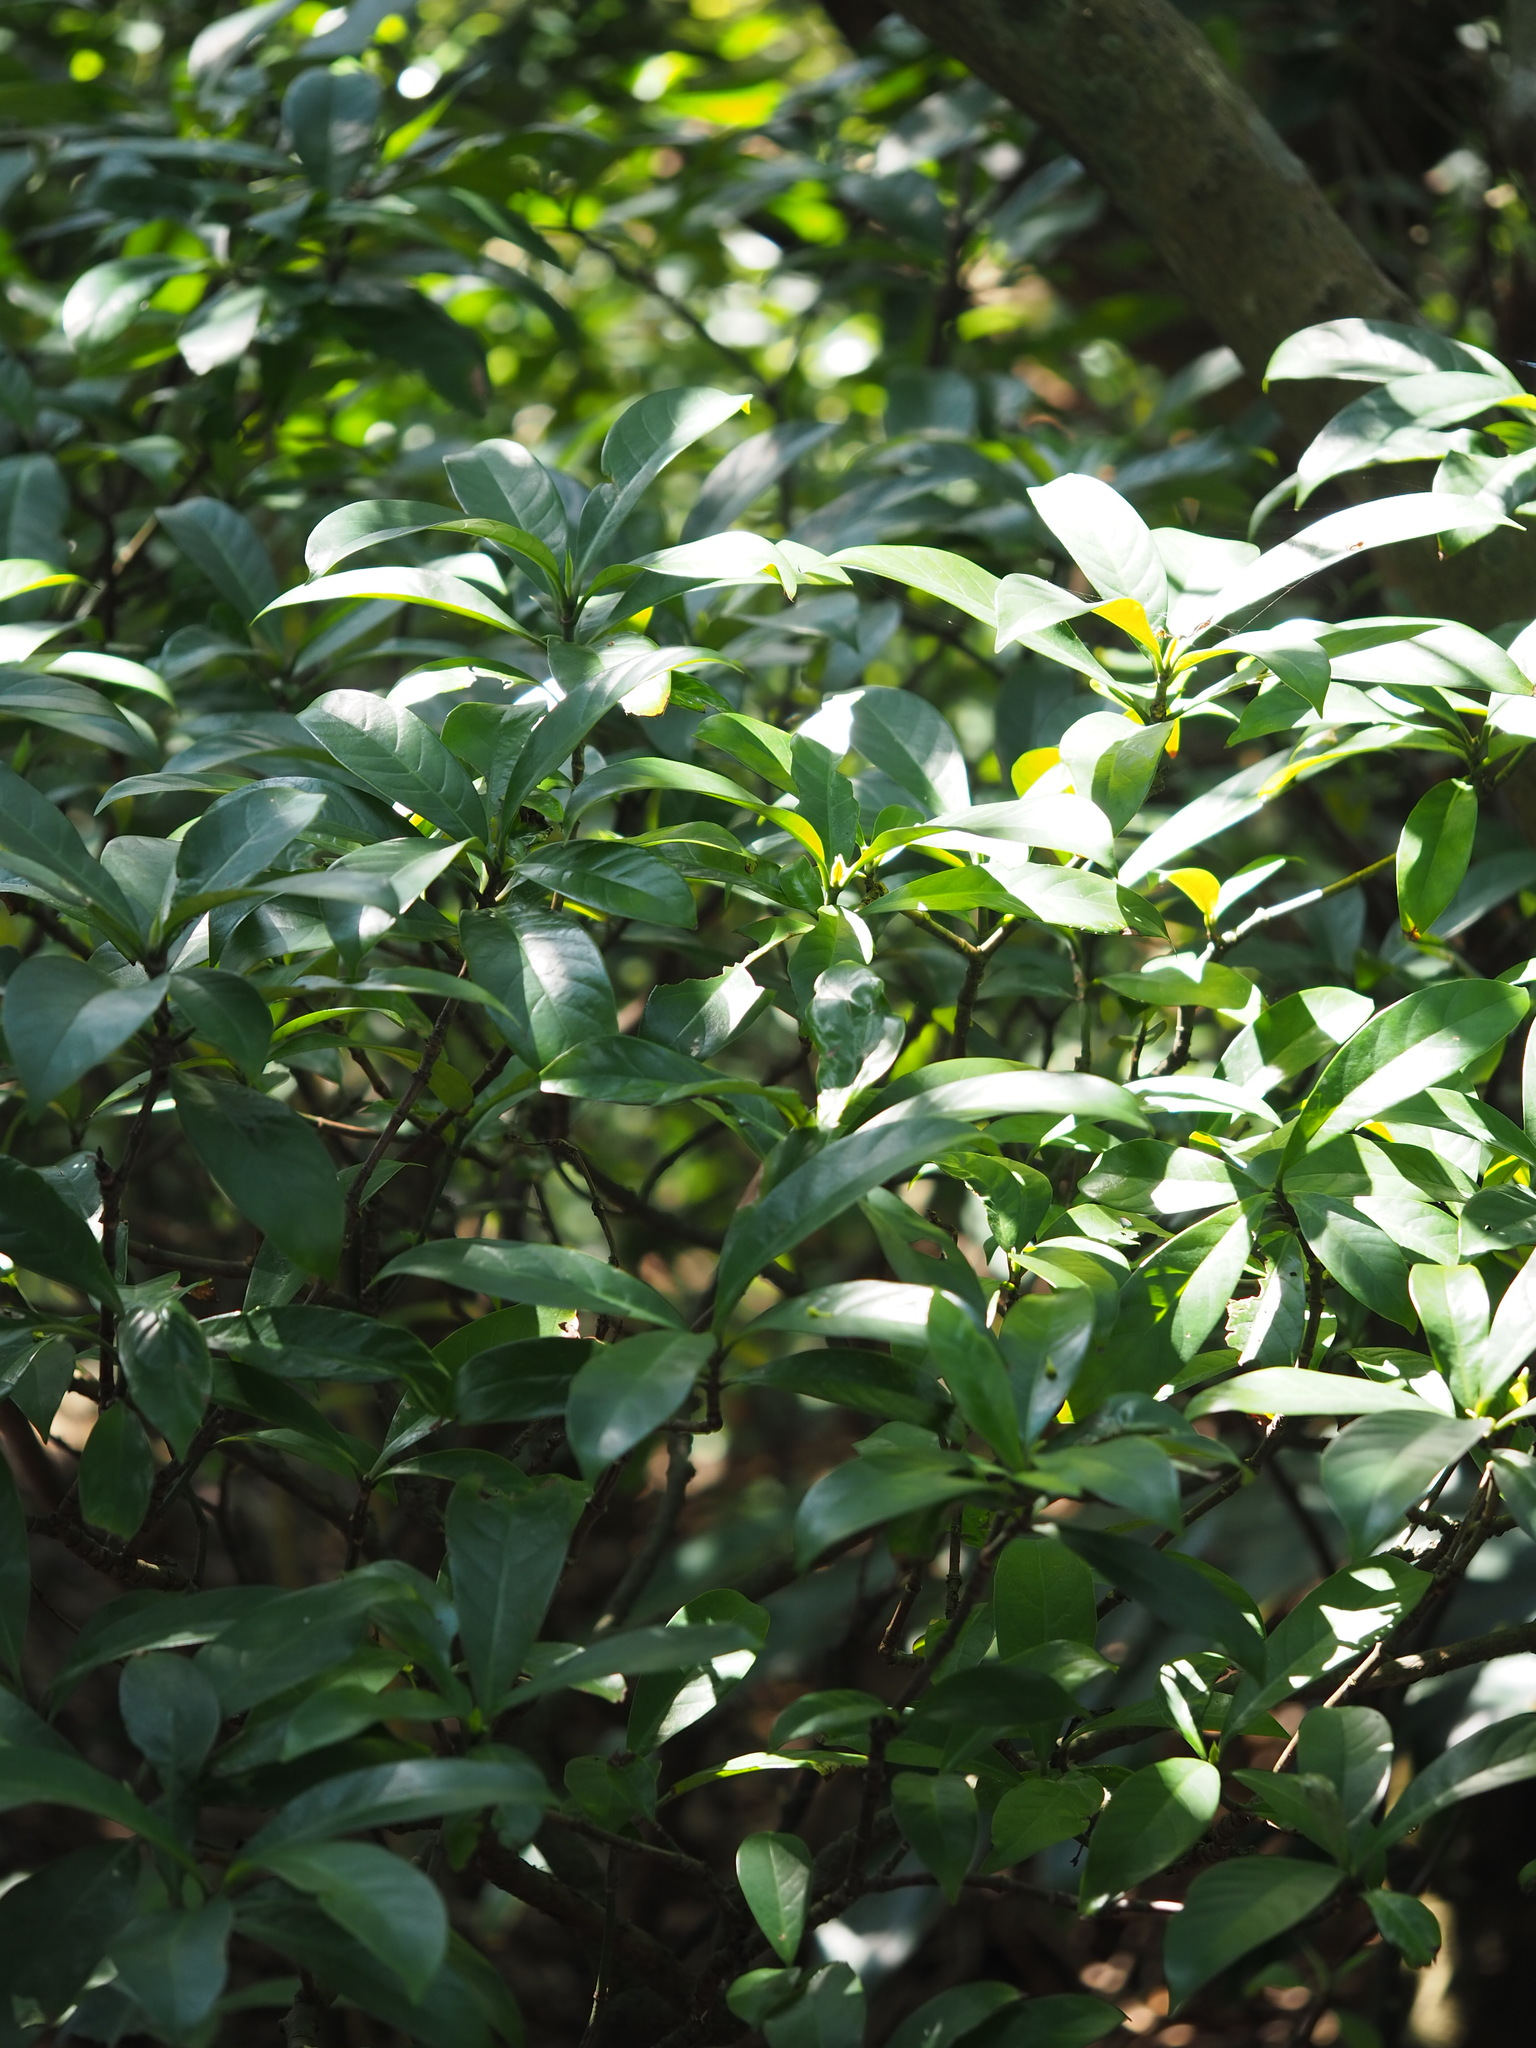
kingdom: Plantae
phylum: Tracheophyta
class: Magnoliopsida
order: Gentianales
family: Rubiaceae
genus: Psychotria
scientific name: Psychotria asiatica
